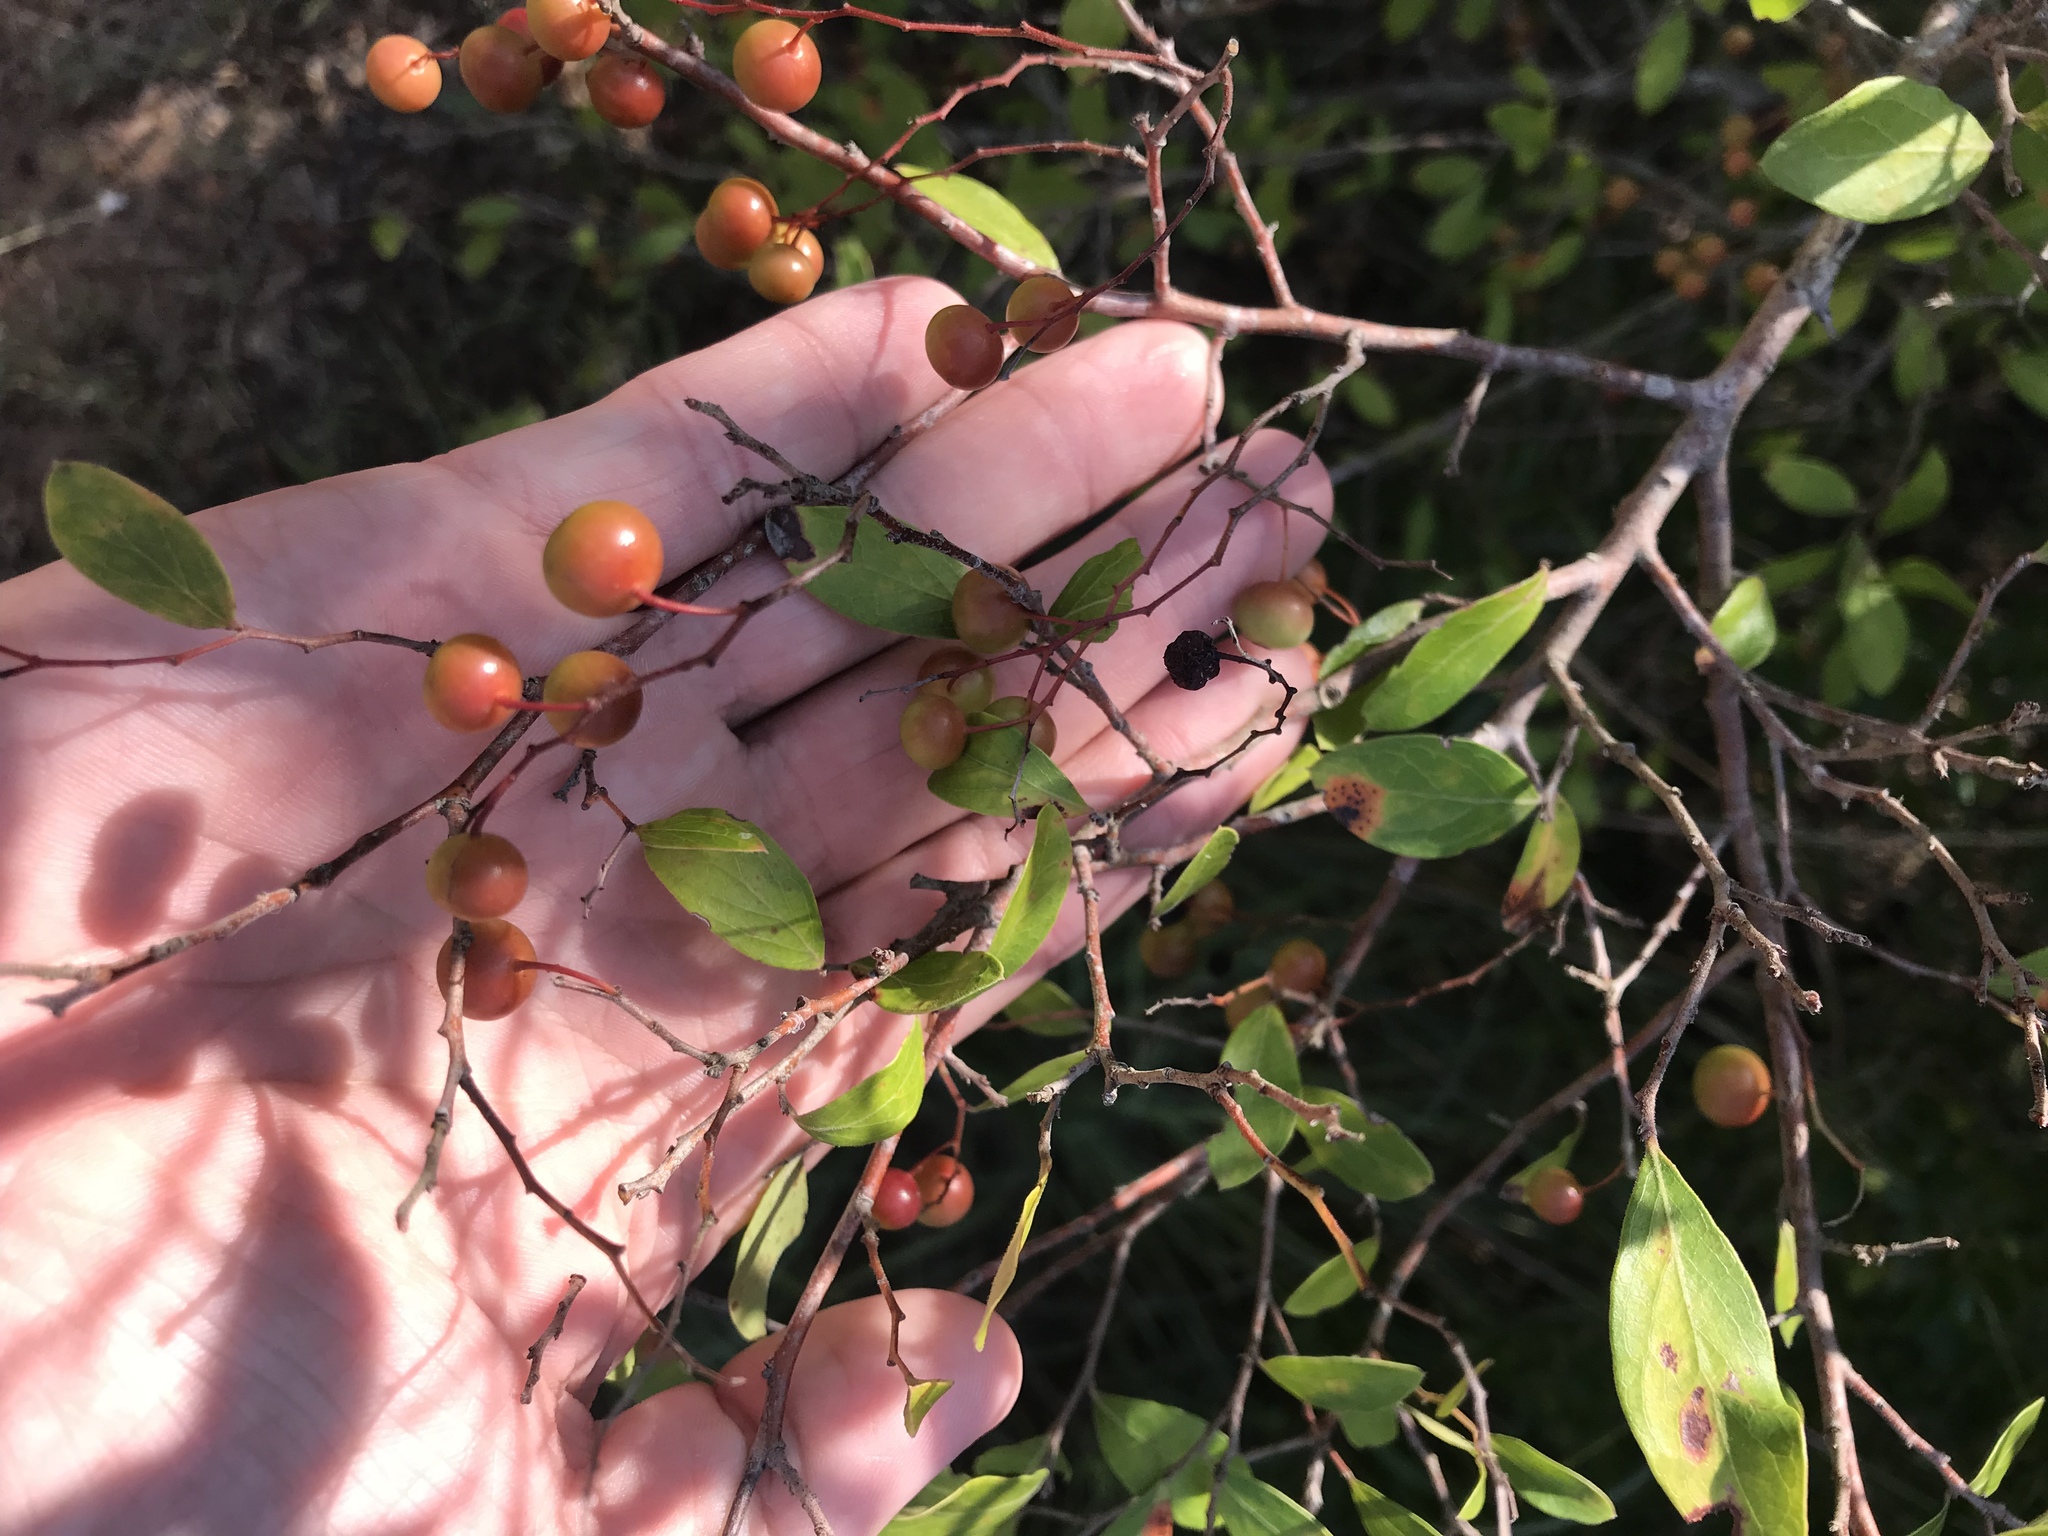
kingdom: Plantae
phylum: Tracheophyta
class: Magnoliopsida
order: Ericales
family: Ericaceae
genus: Vaccinium
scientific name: Vaccinium arboreum
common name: Farkleberry
